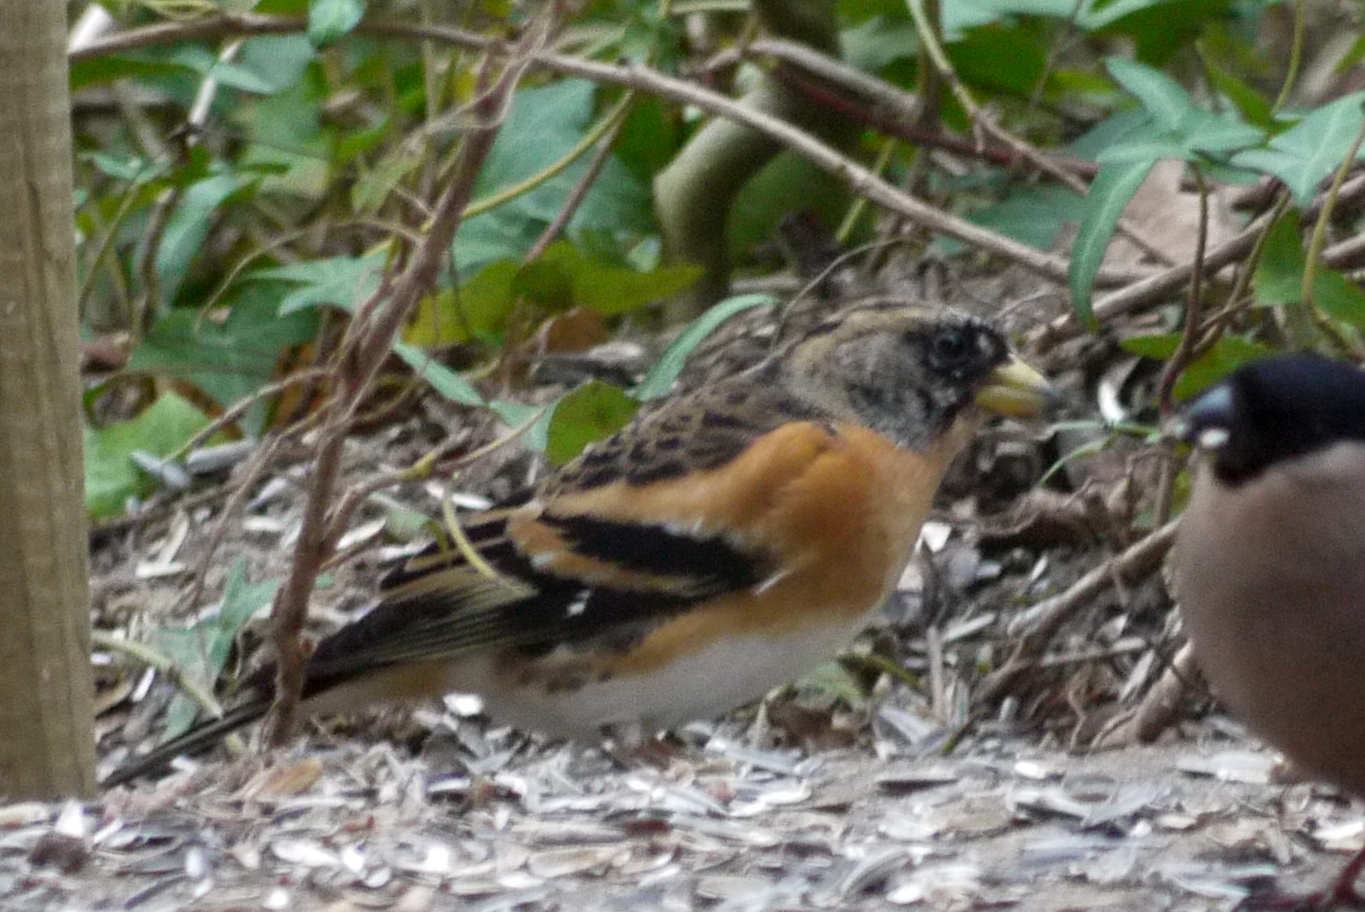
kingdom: Animalia
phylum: Chordata
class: Aves
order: Passeriformes
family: Fringillidae
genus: Fringilla
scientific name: Fringilla montifringilla
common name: Brambling
